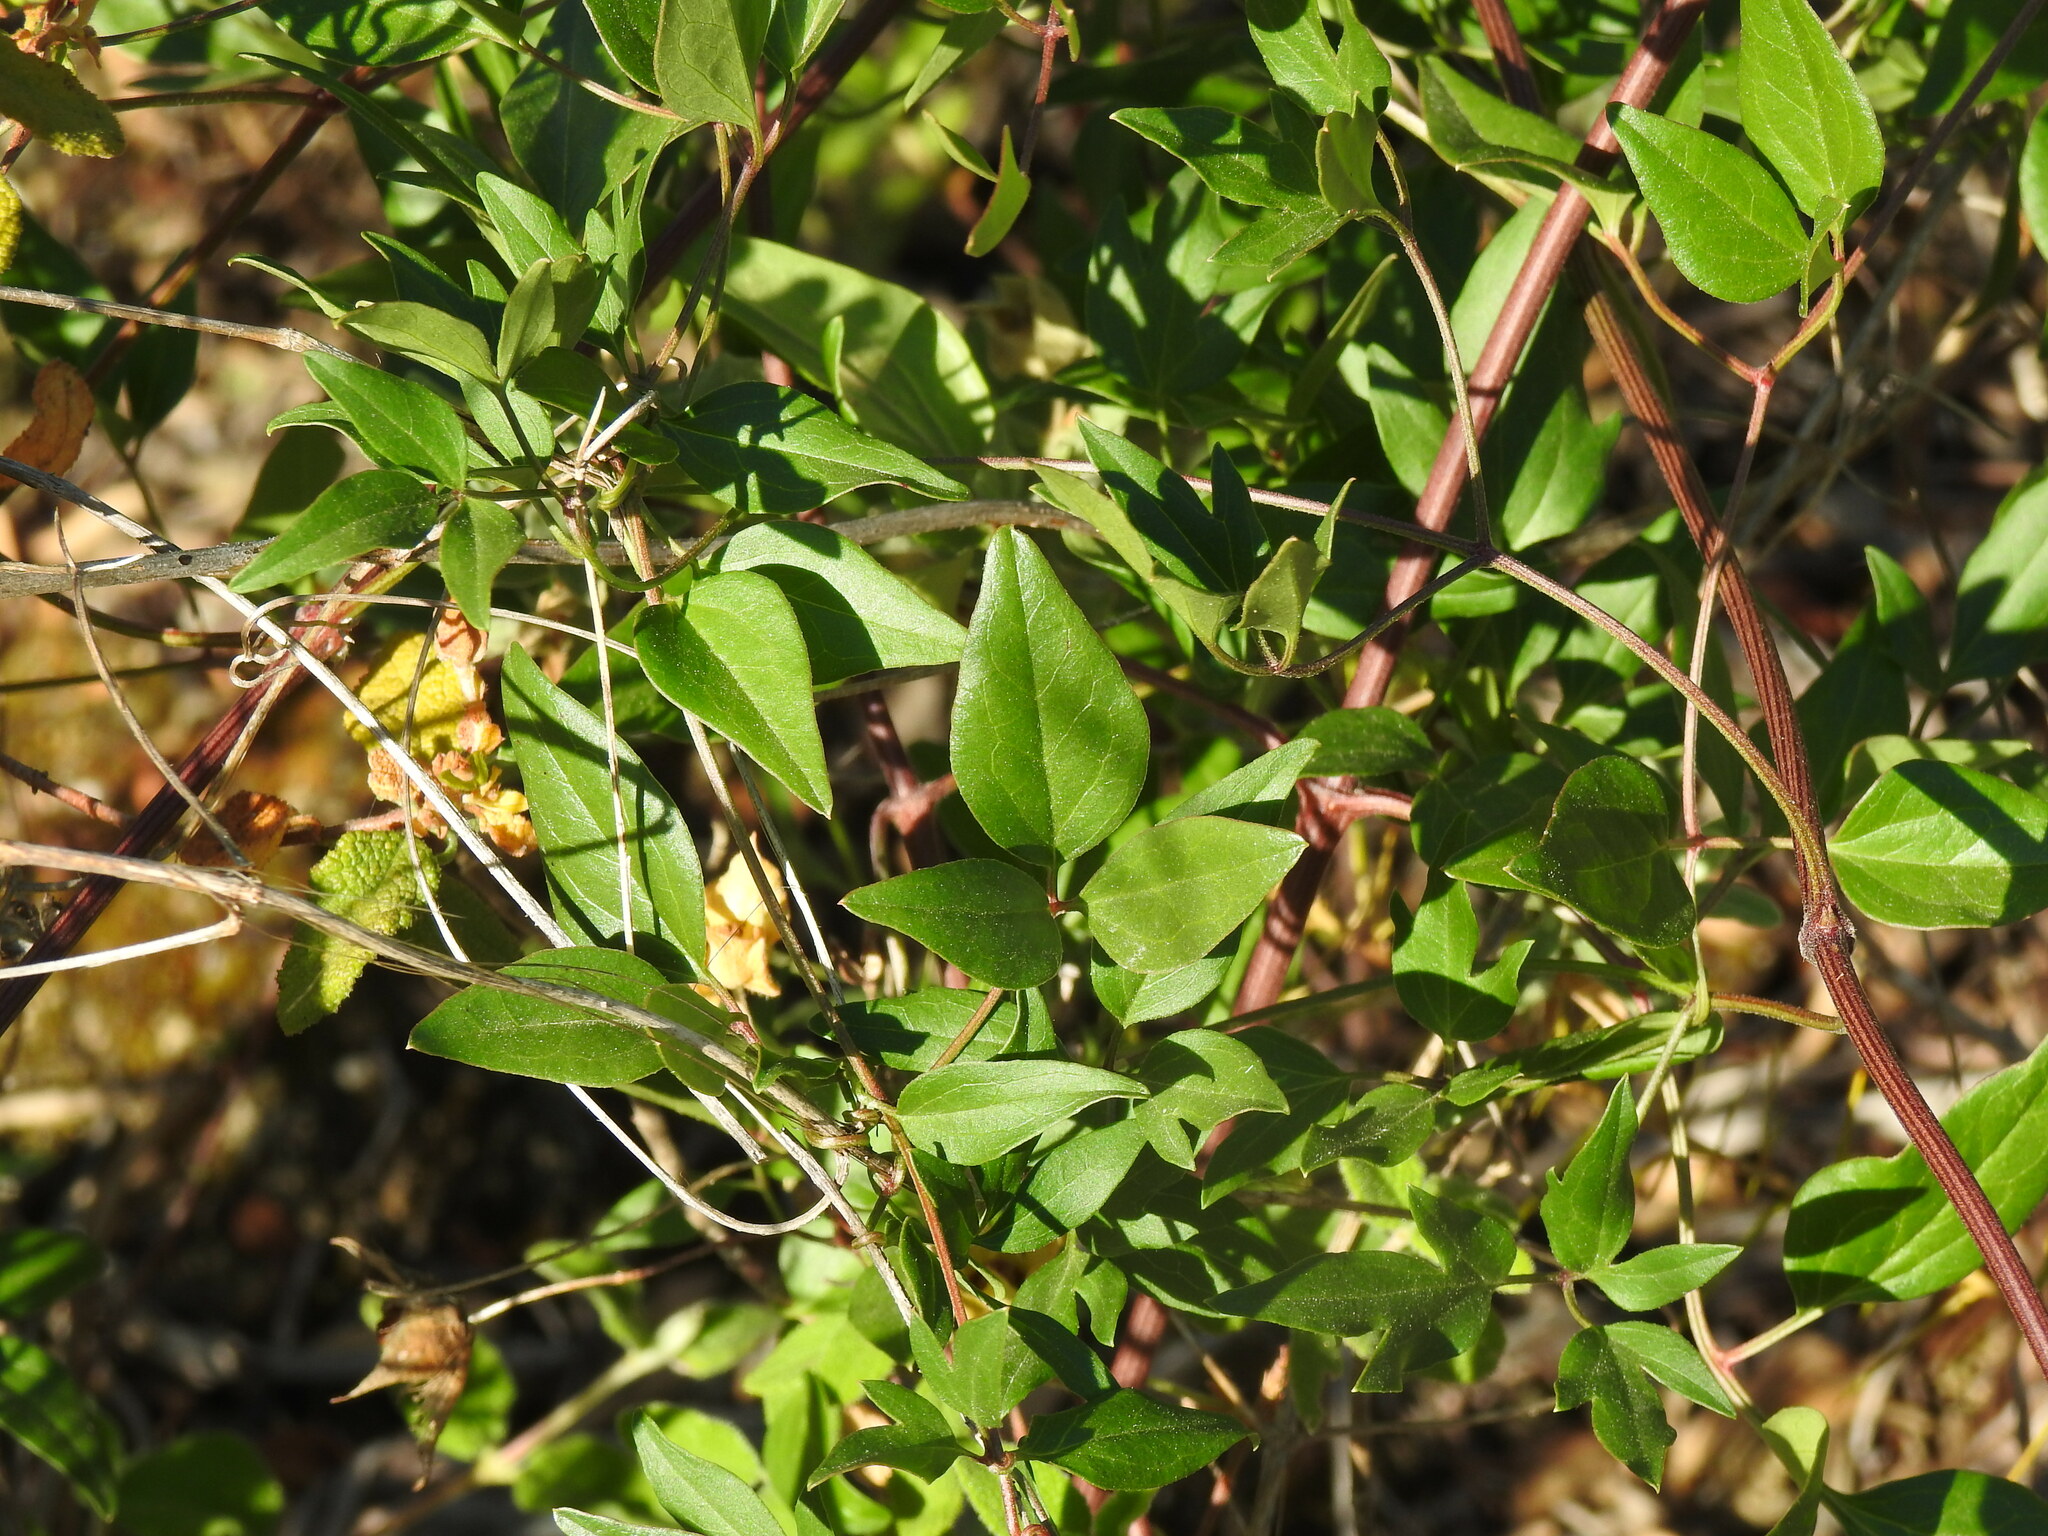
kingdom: Plantae
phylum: Tracheophyta
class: Magnoliopsida
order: Ranunculales
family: Ranunculaceae
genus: Clematis
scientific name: Clematis flammula
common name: Virgin's-bower
